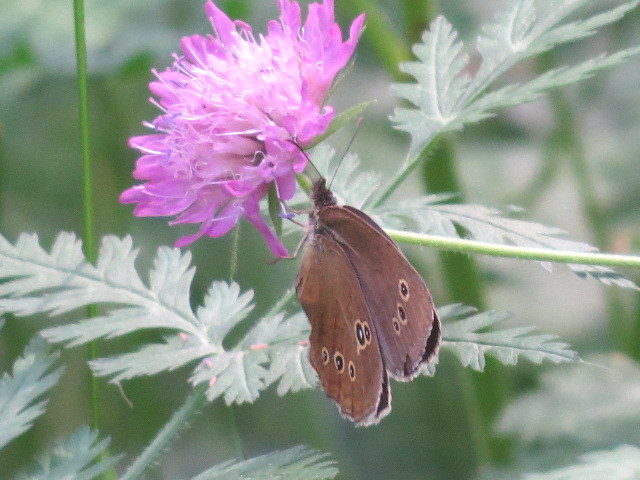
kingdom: Animalia
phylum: Arthropoda
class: Insecta
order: Lepidoptera
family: Nymphalidae
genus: Aphantopus
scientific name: Aphantopus hyperantus
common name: Ringlet
